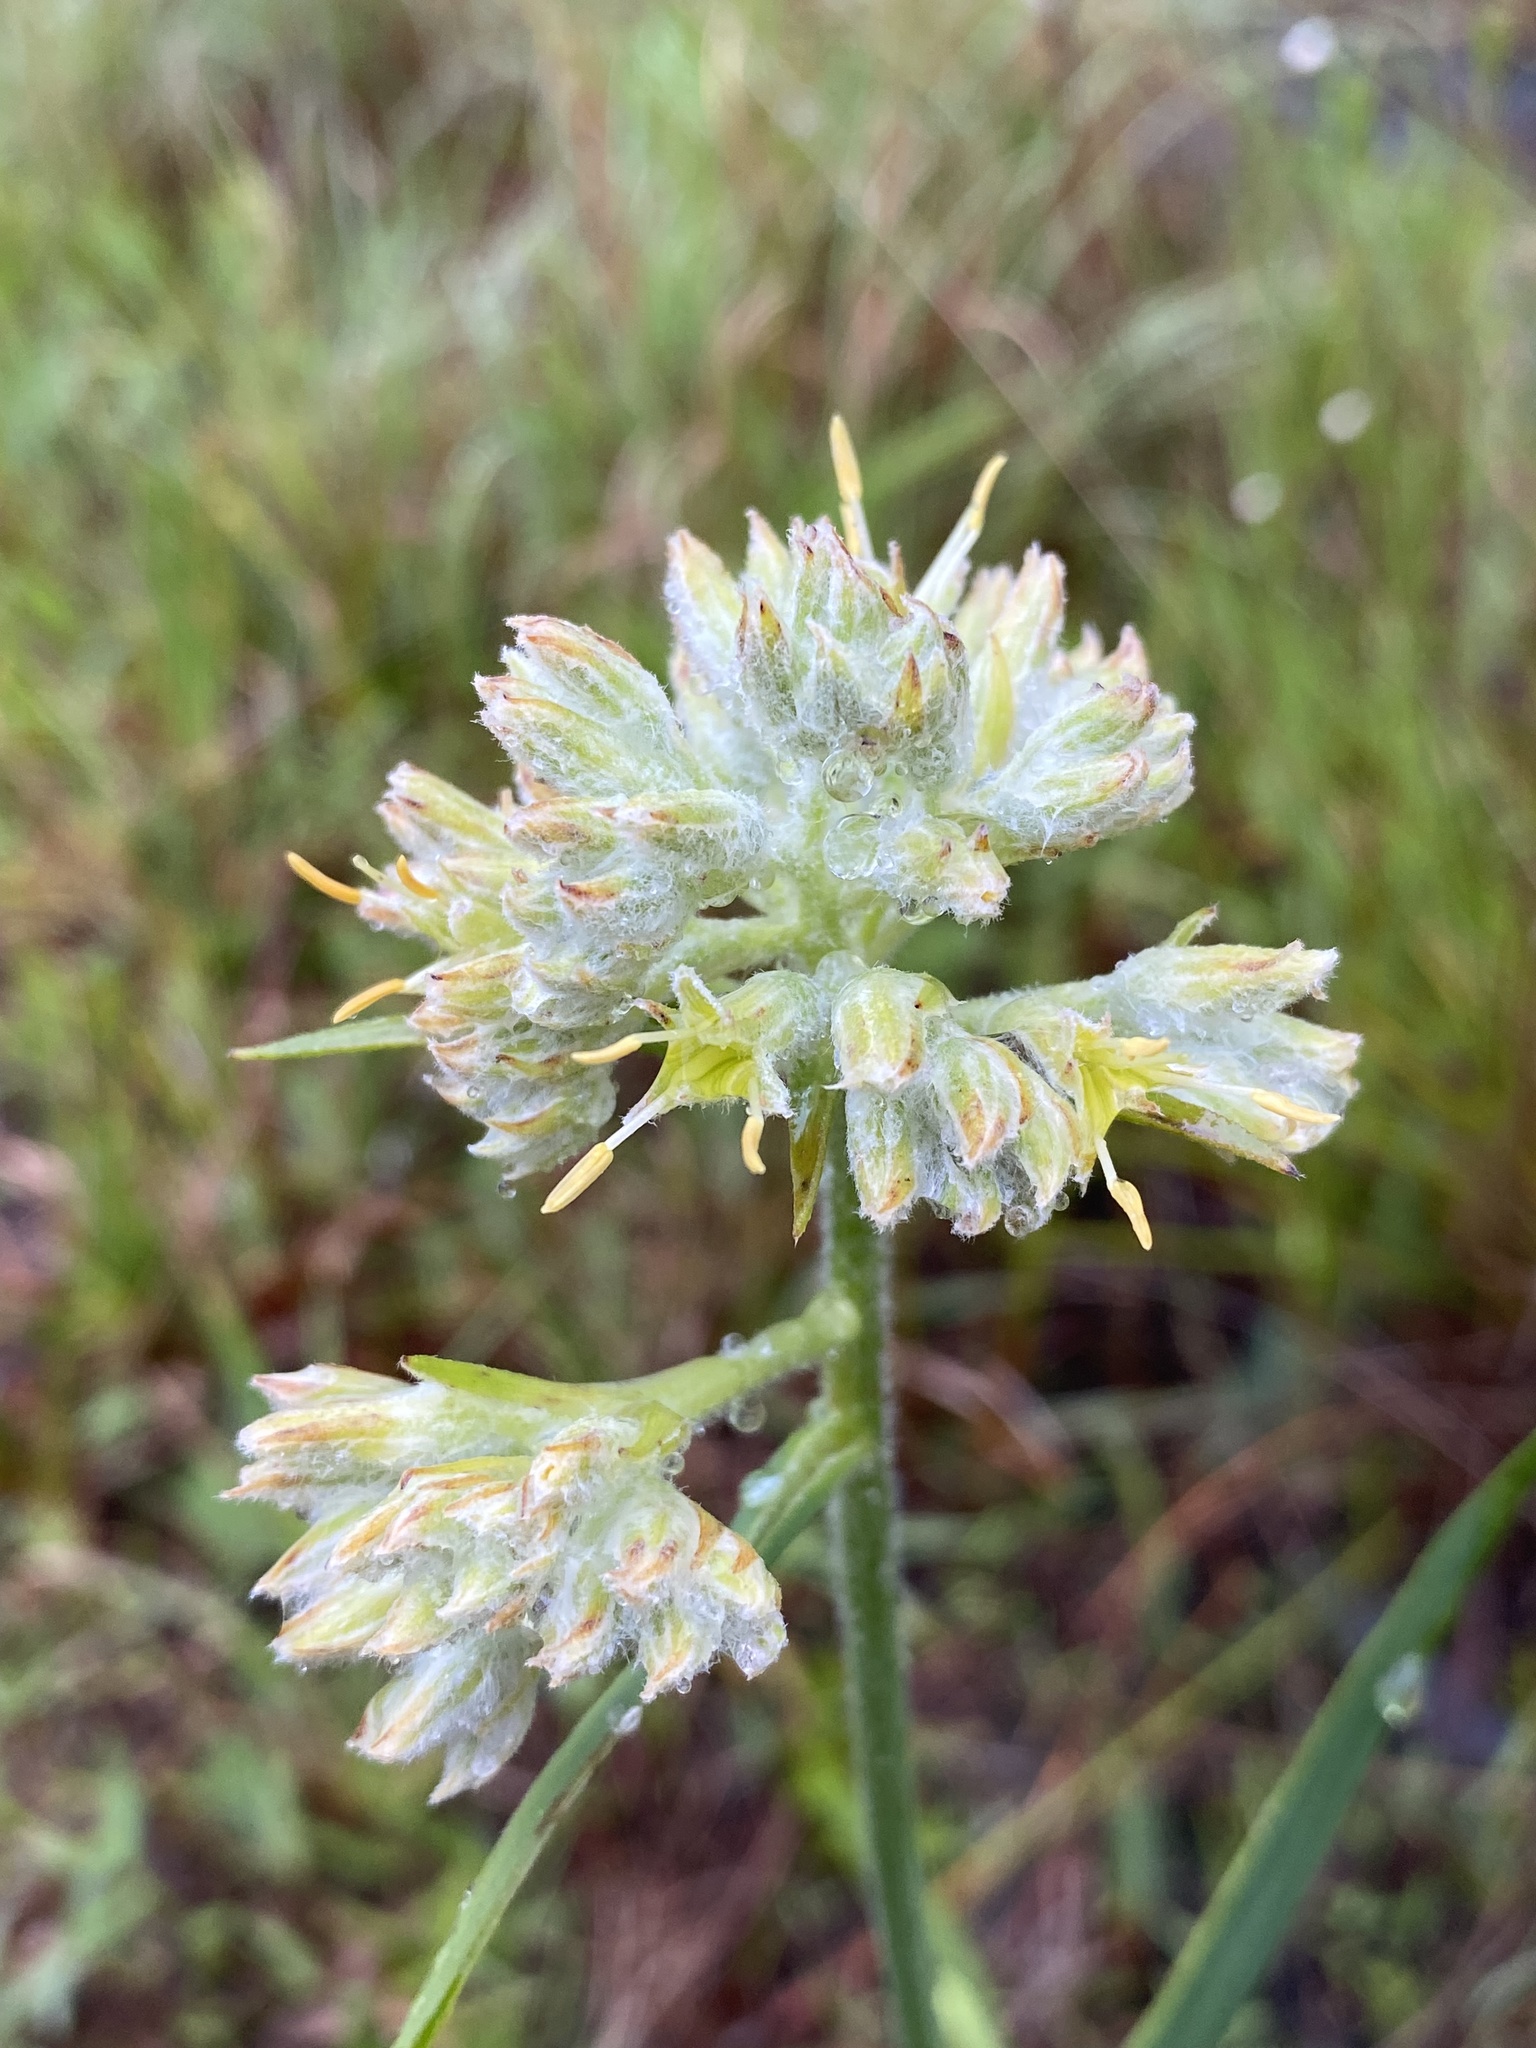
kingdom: Plantae
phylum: Tracheophyta
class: Liliopsida
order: Commelinales
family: Haemodoraceae
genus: Lachnanthes
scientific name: Lachnanthes caroliana
